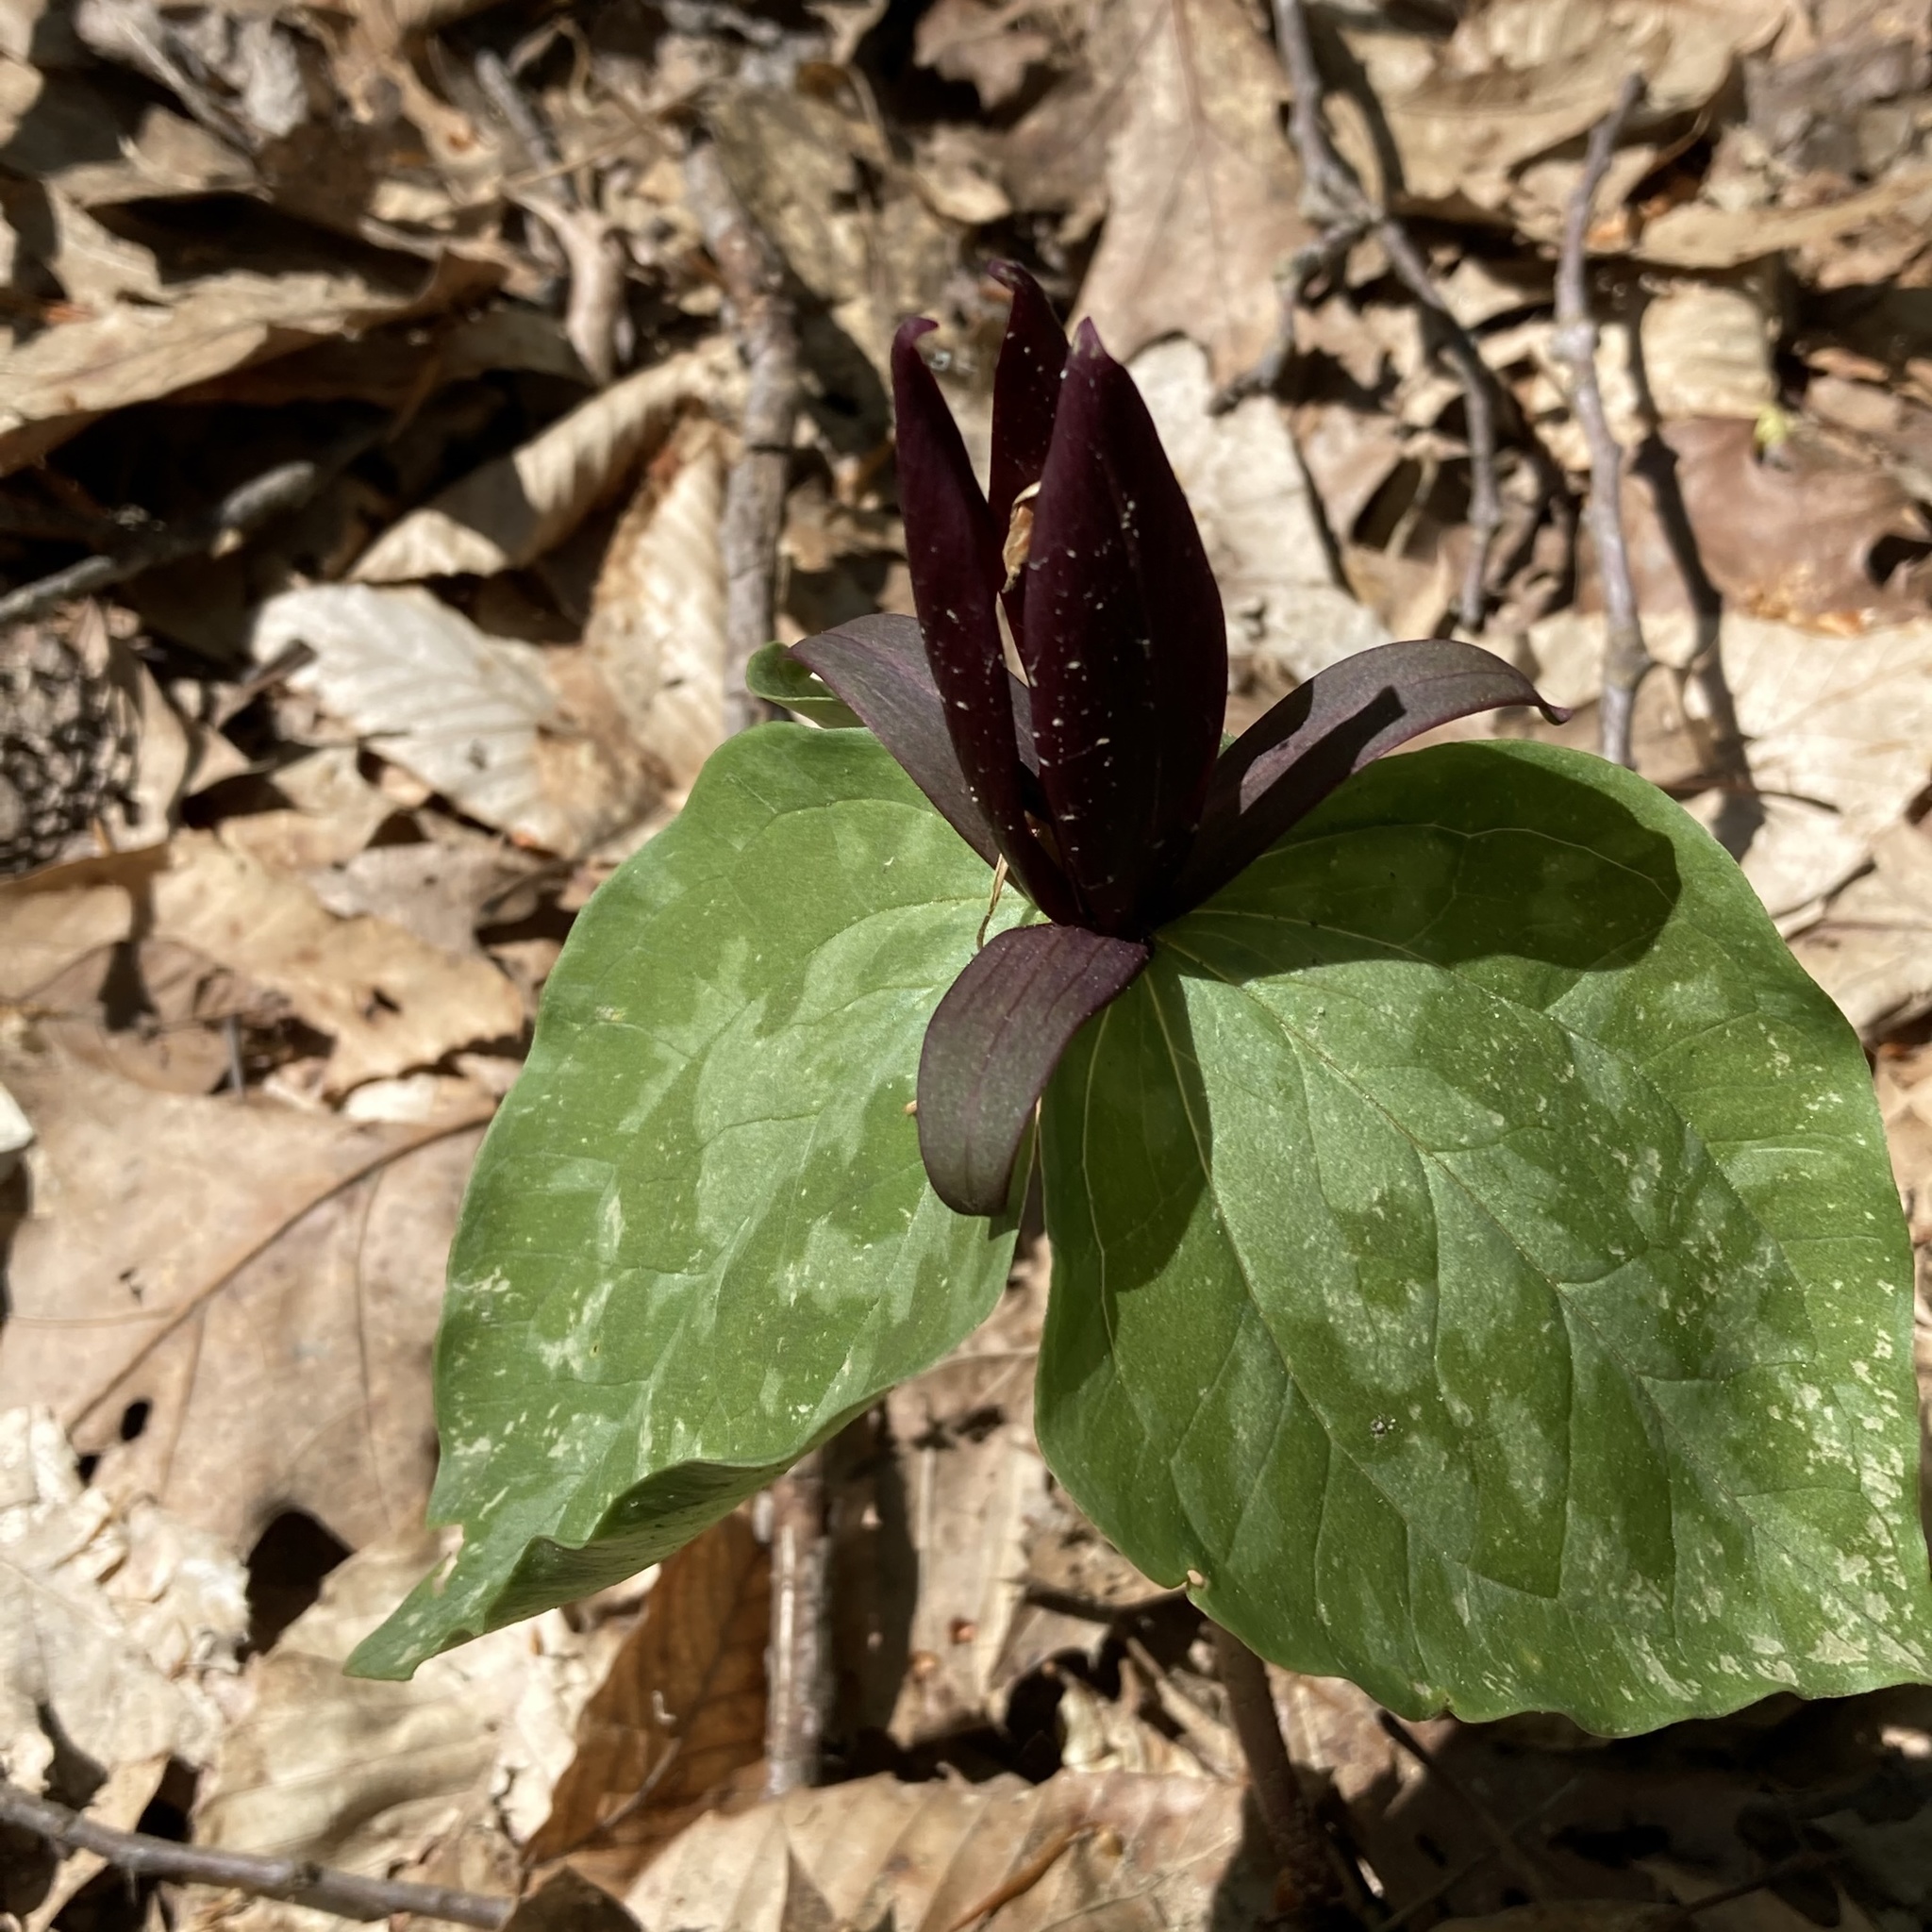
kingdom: Plantae
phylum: Tracheophyta
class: Liliopsida
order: Liliales
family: Melanthiaceae
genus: Trillium
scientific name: Trillium cuneatum
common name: Cuneate trillium
